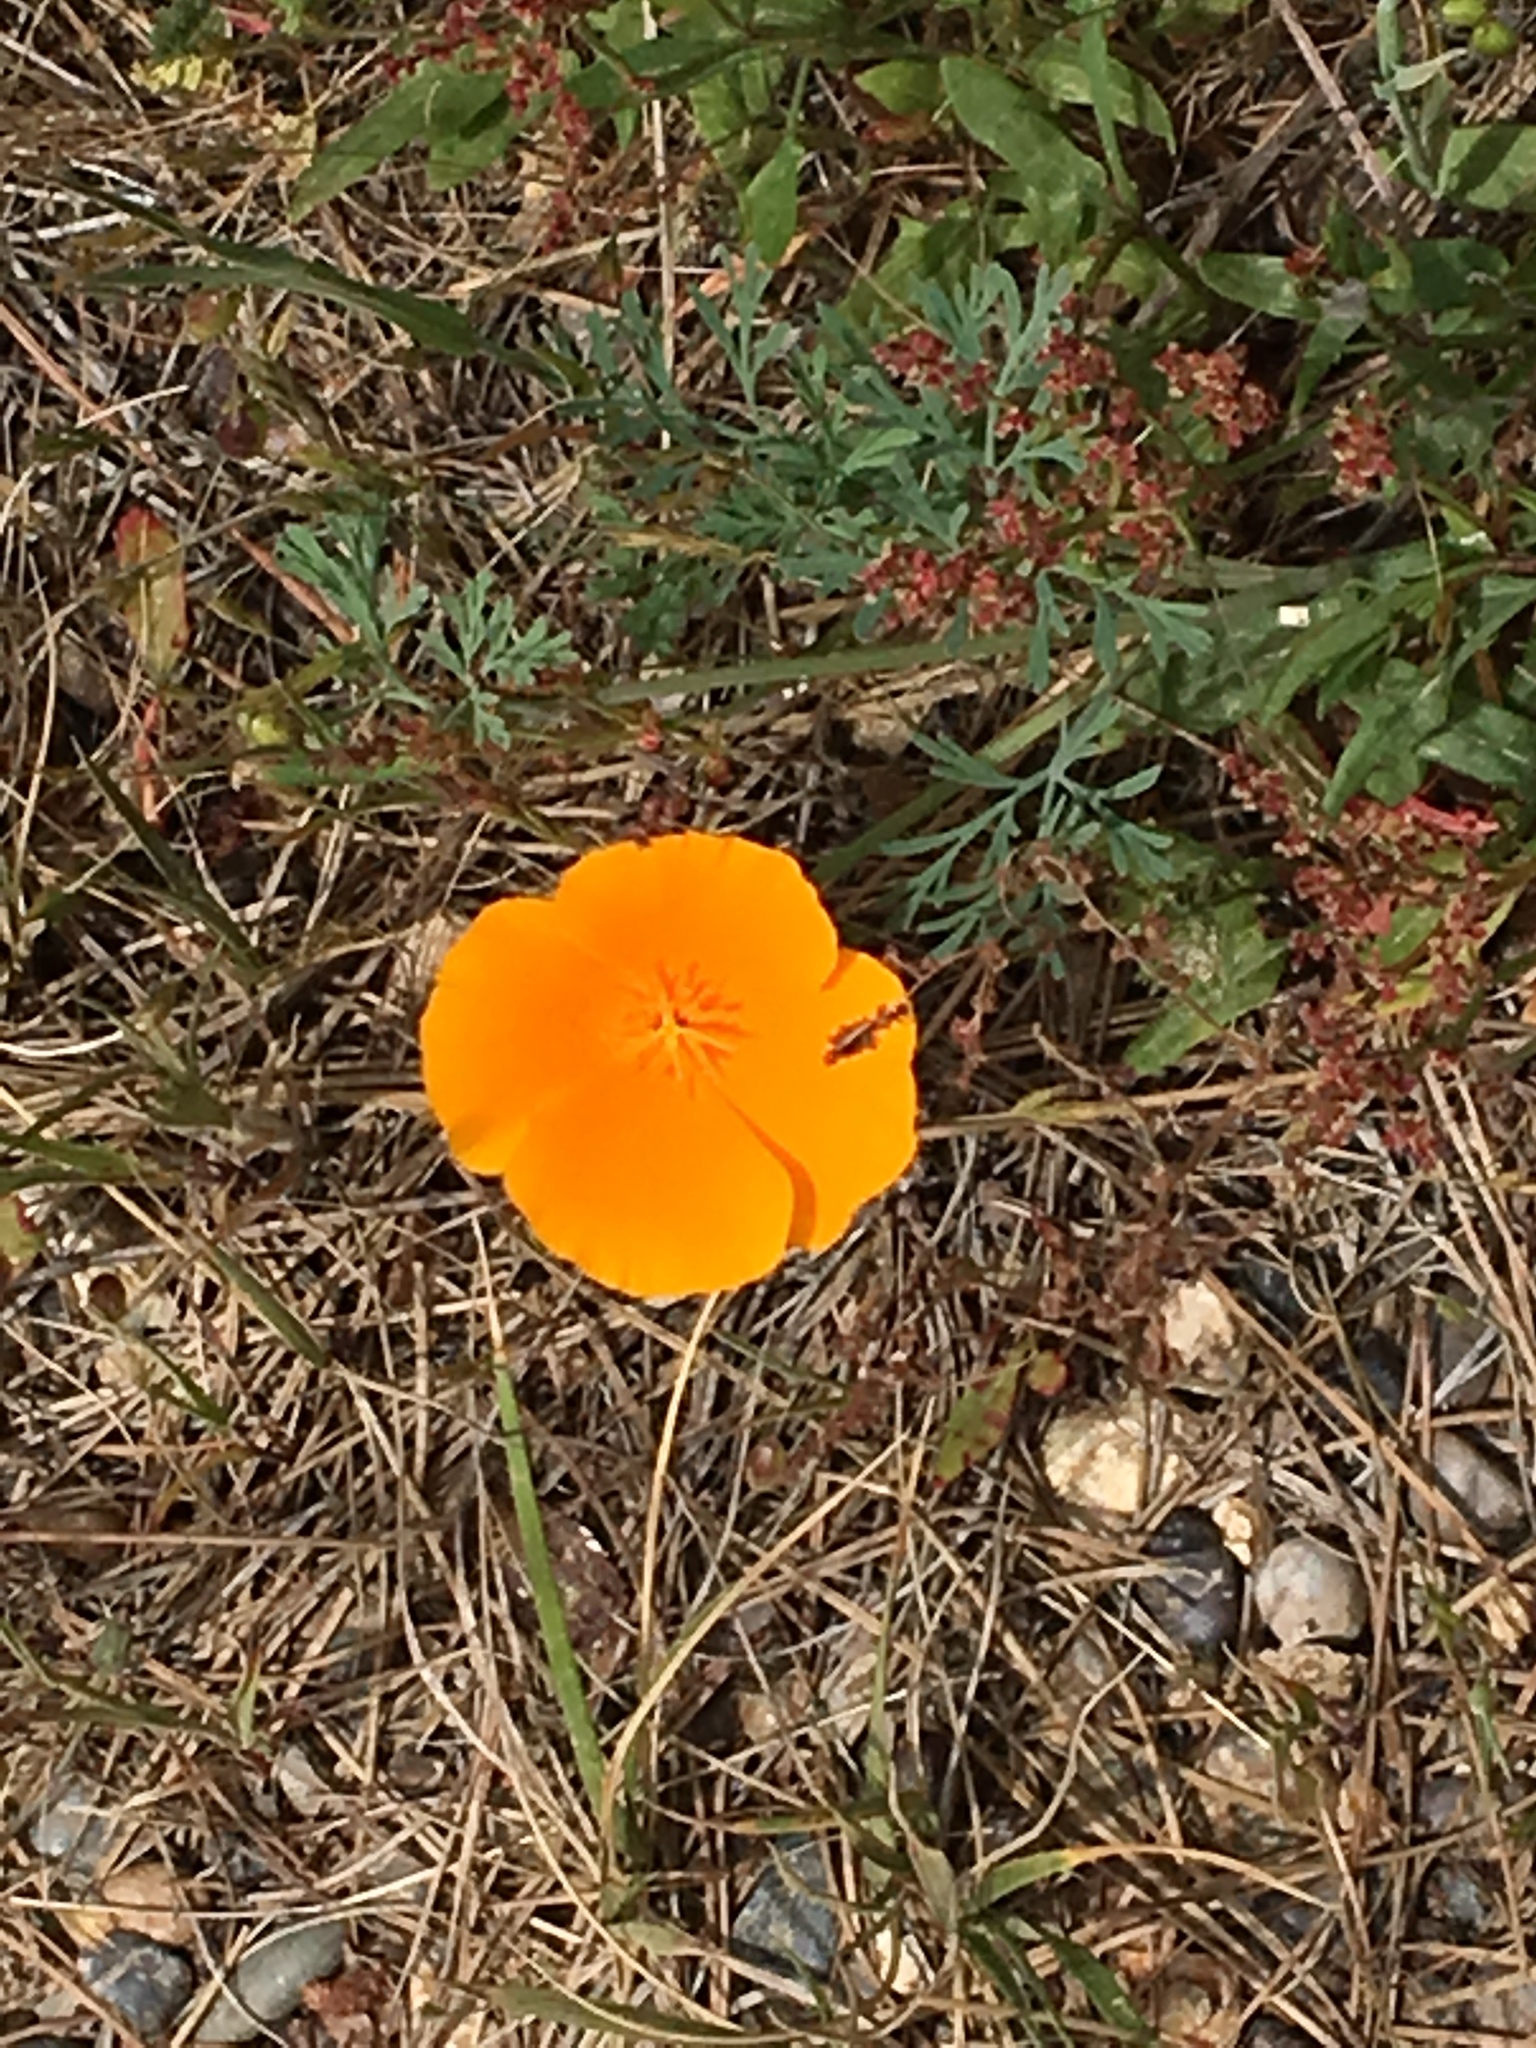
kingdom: Plantae
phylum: Tracheophyta
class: Magnoliopsida
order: Ranunculales
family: Papaveraceae
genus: Eschscholzia
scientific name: Eschscholzia californica
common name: California poppy
